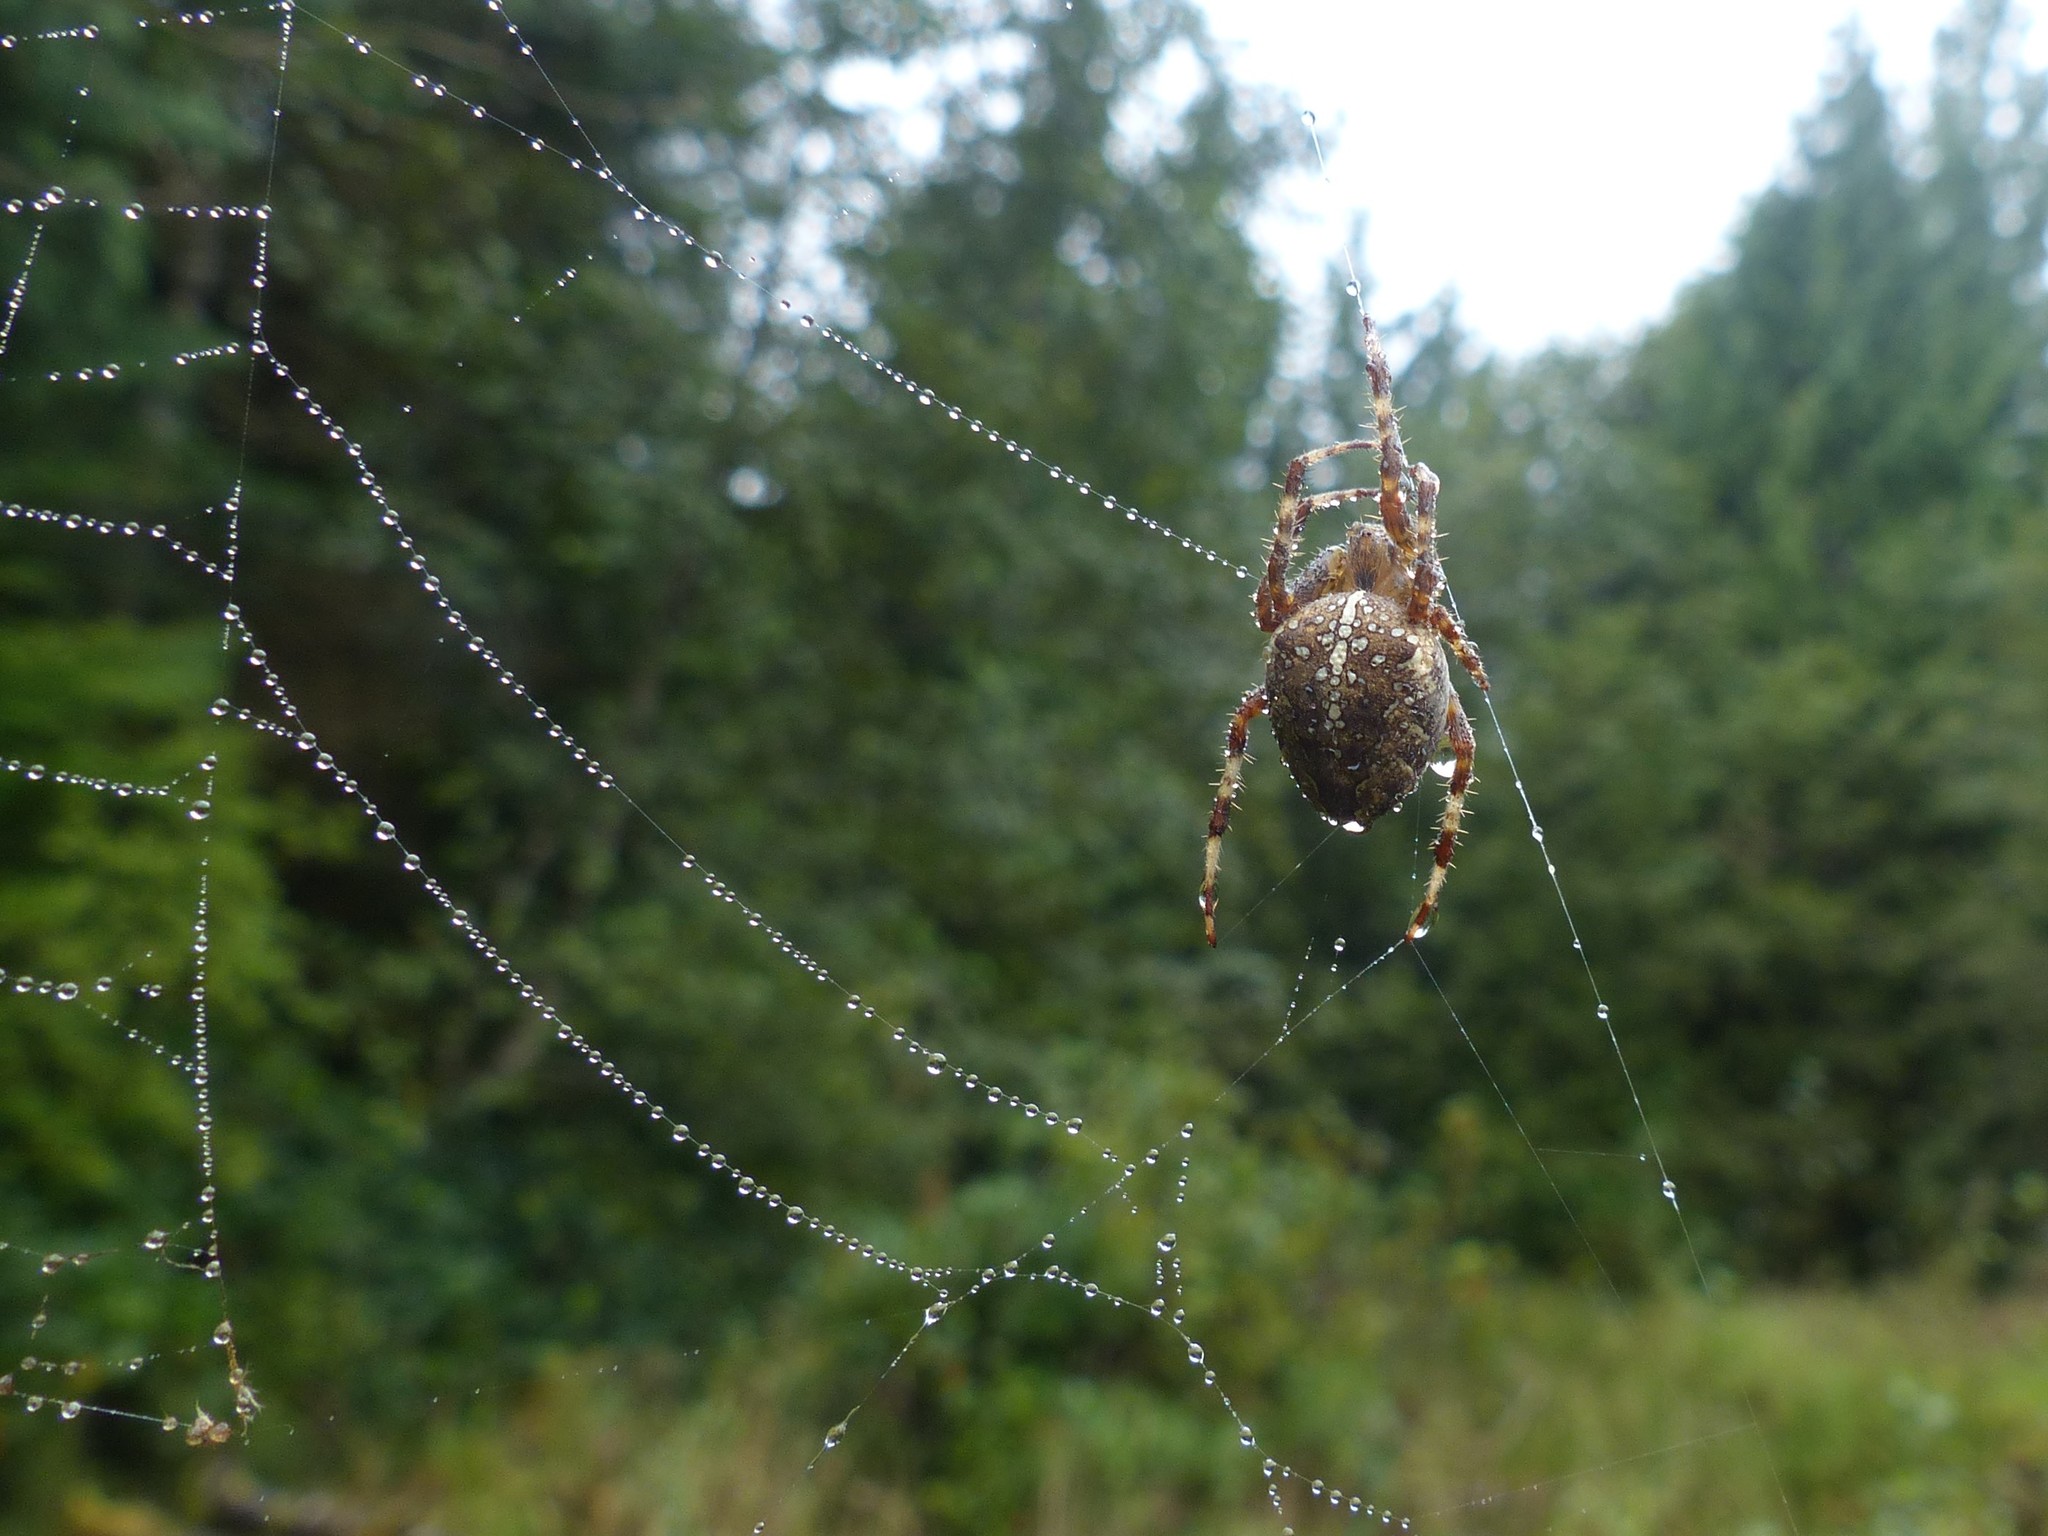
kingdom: Animalia
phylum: Arthropoda
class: Arachnida
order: Araneae
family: Araneidae
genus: Araneus
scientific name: Araneus diadematus
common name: Cross orbweaver
